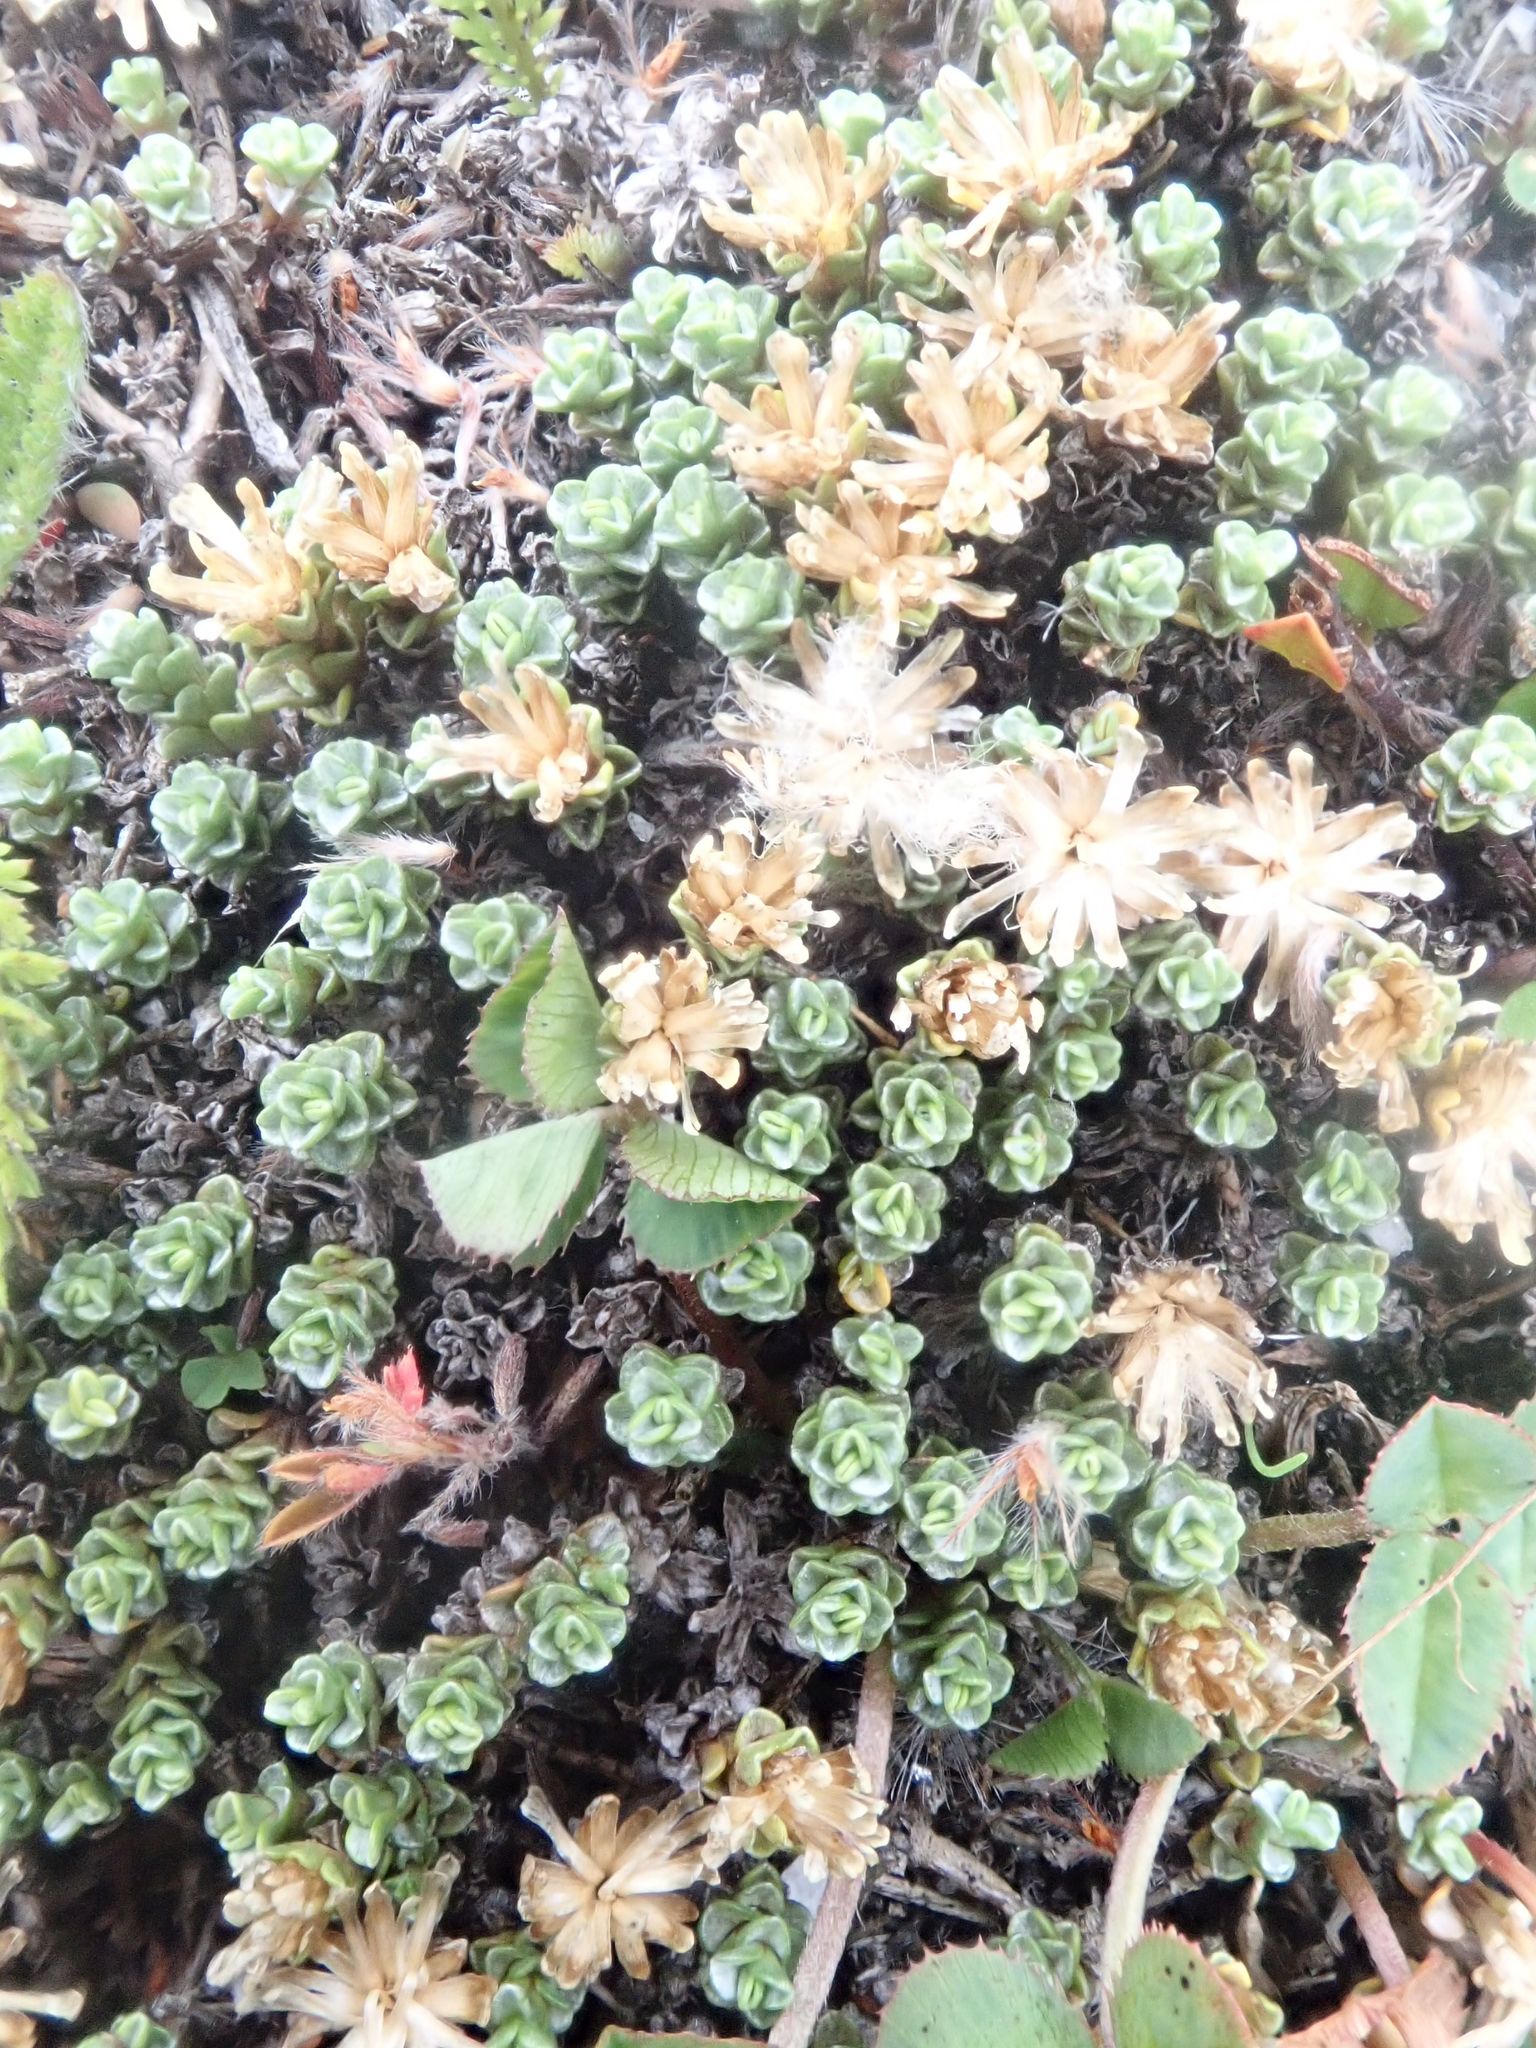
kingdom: Plantae
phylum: Tracheophyta
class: Magnoliopsida
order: Asterales
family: Asteraceae
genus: Raoulia
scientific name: Raoulia parkii
